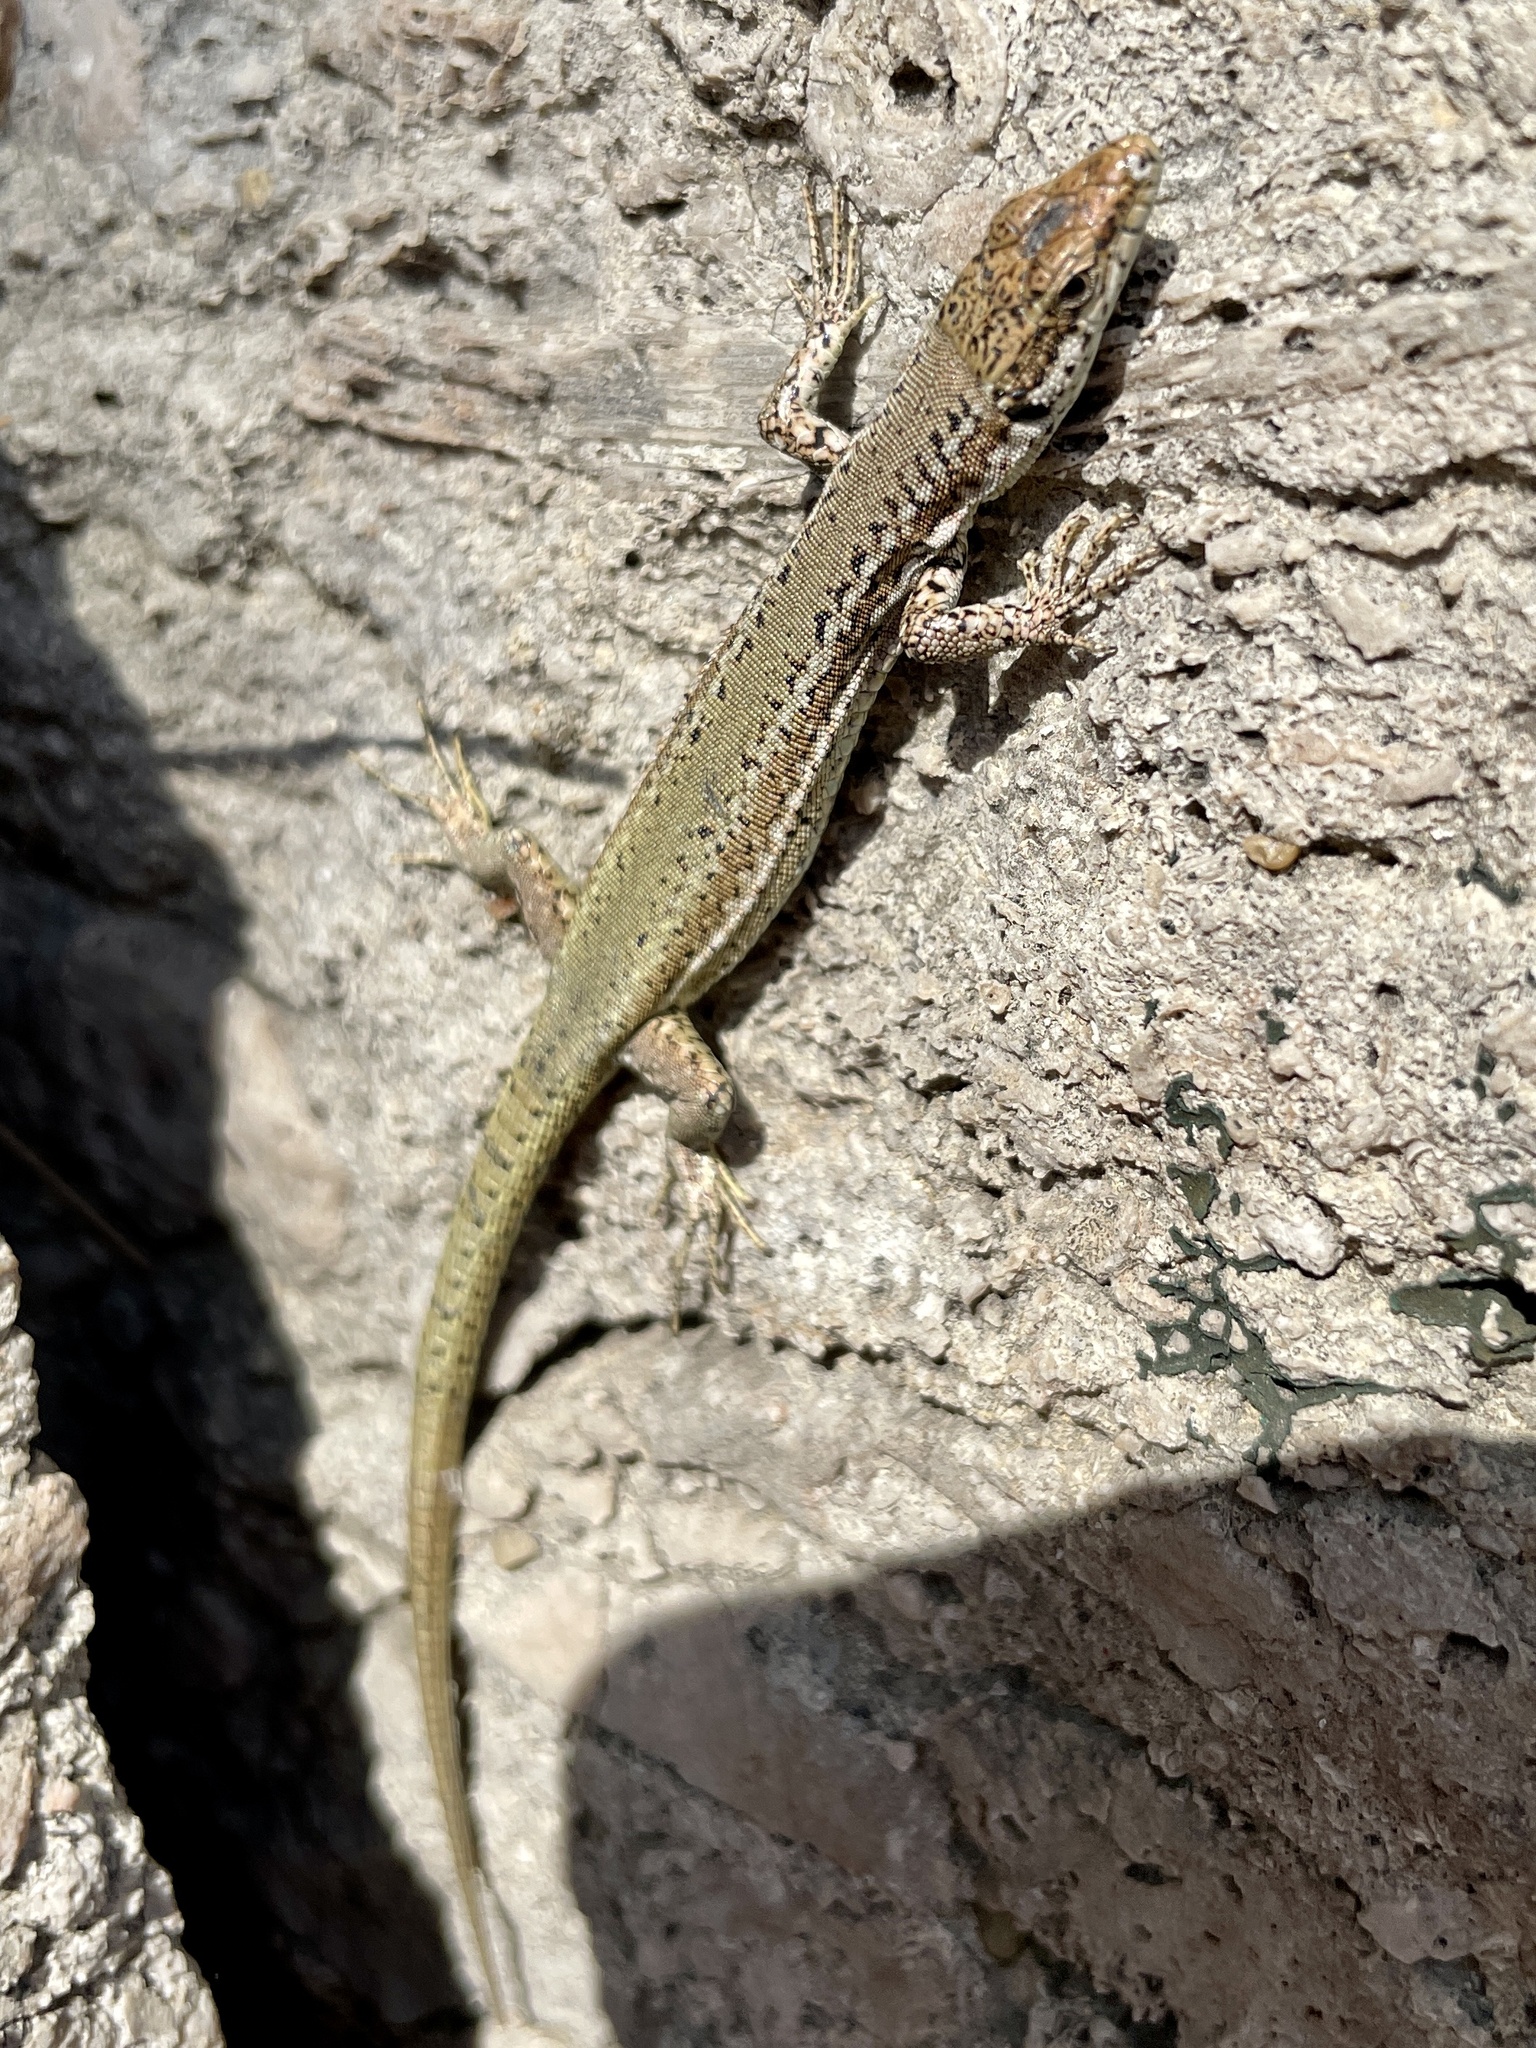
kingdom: Animalia
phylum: Chordata
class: Squamata
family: Lacertidae
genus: Podarcis
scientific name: Podarcis virescens
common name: Geniez’s wall lizard
